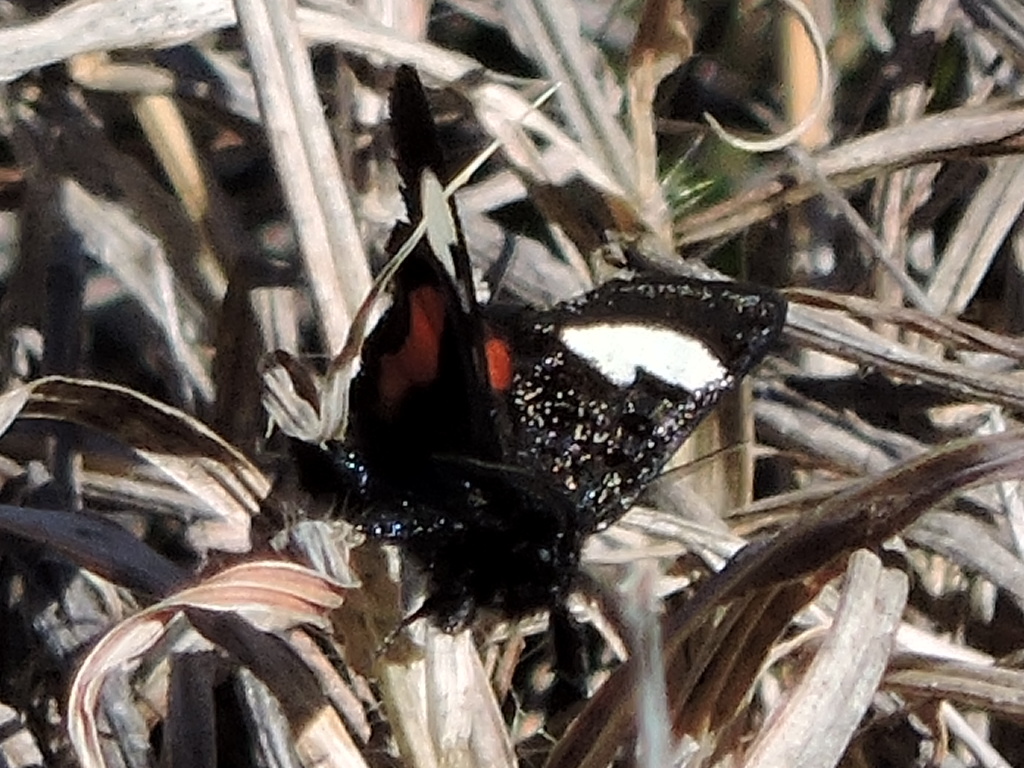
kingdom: Animalia
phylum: Arthropoda
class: Insecta
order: Lepidoptera
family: Noctuidae
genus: Psychomorpha
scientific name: Psychomorpha epimenis
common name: Grapevine epimenis moth
